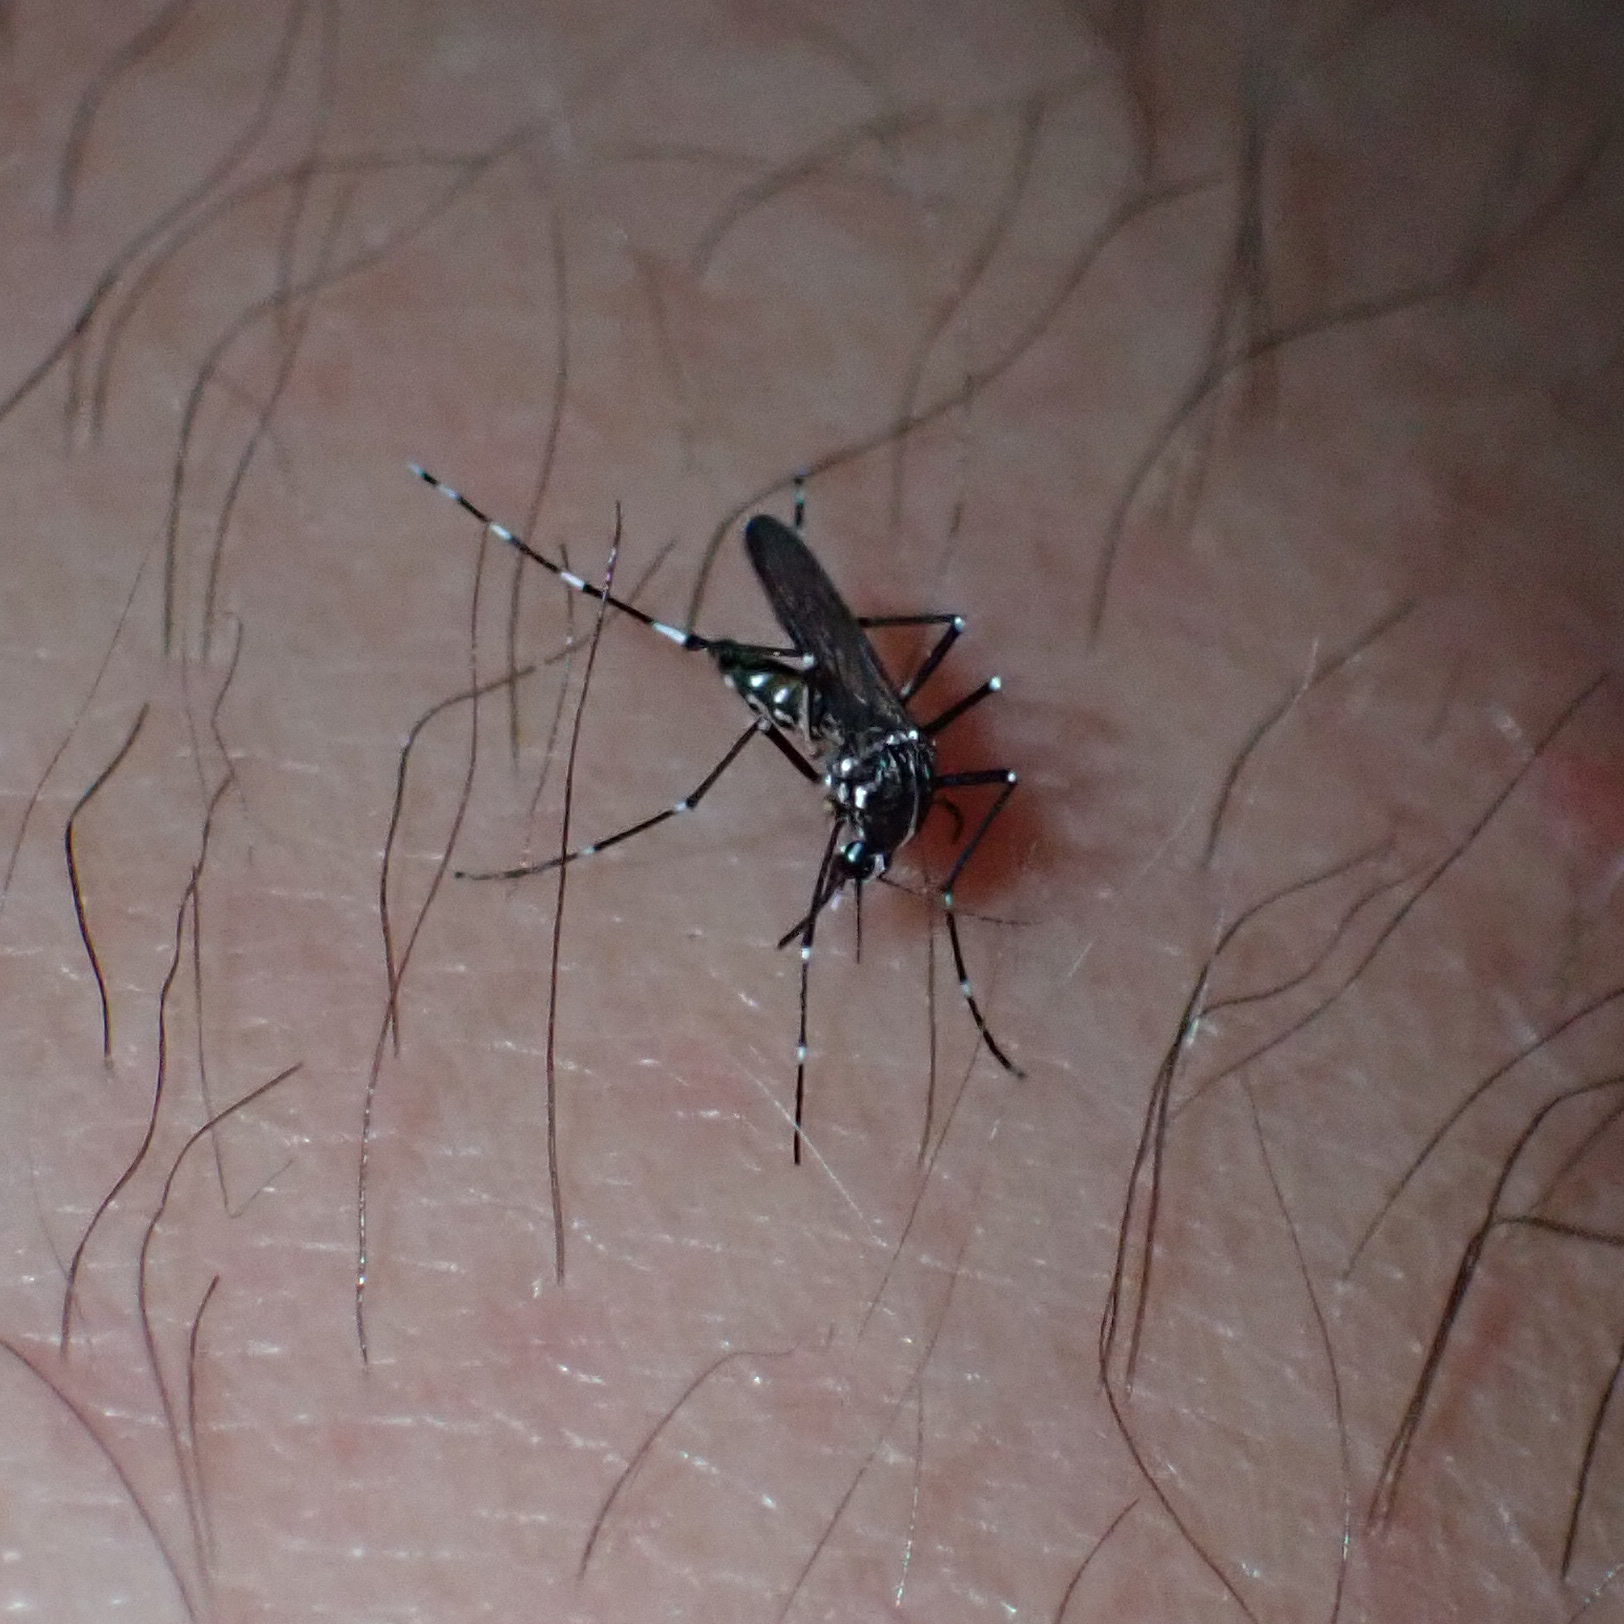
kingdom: Animalia
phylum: Arthropoda
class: Insecta
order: Diptera
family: Culicidae
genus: Aedes
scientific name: Aedes albopictus
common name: Tiger mosquito
